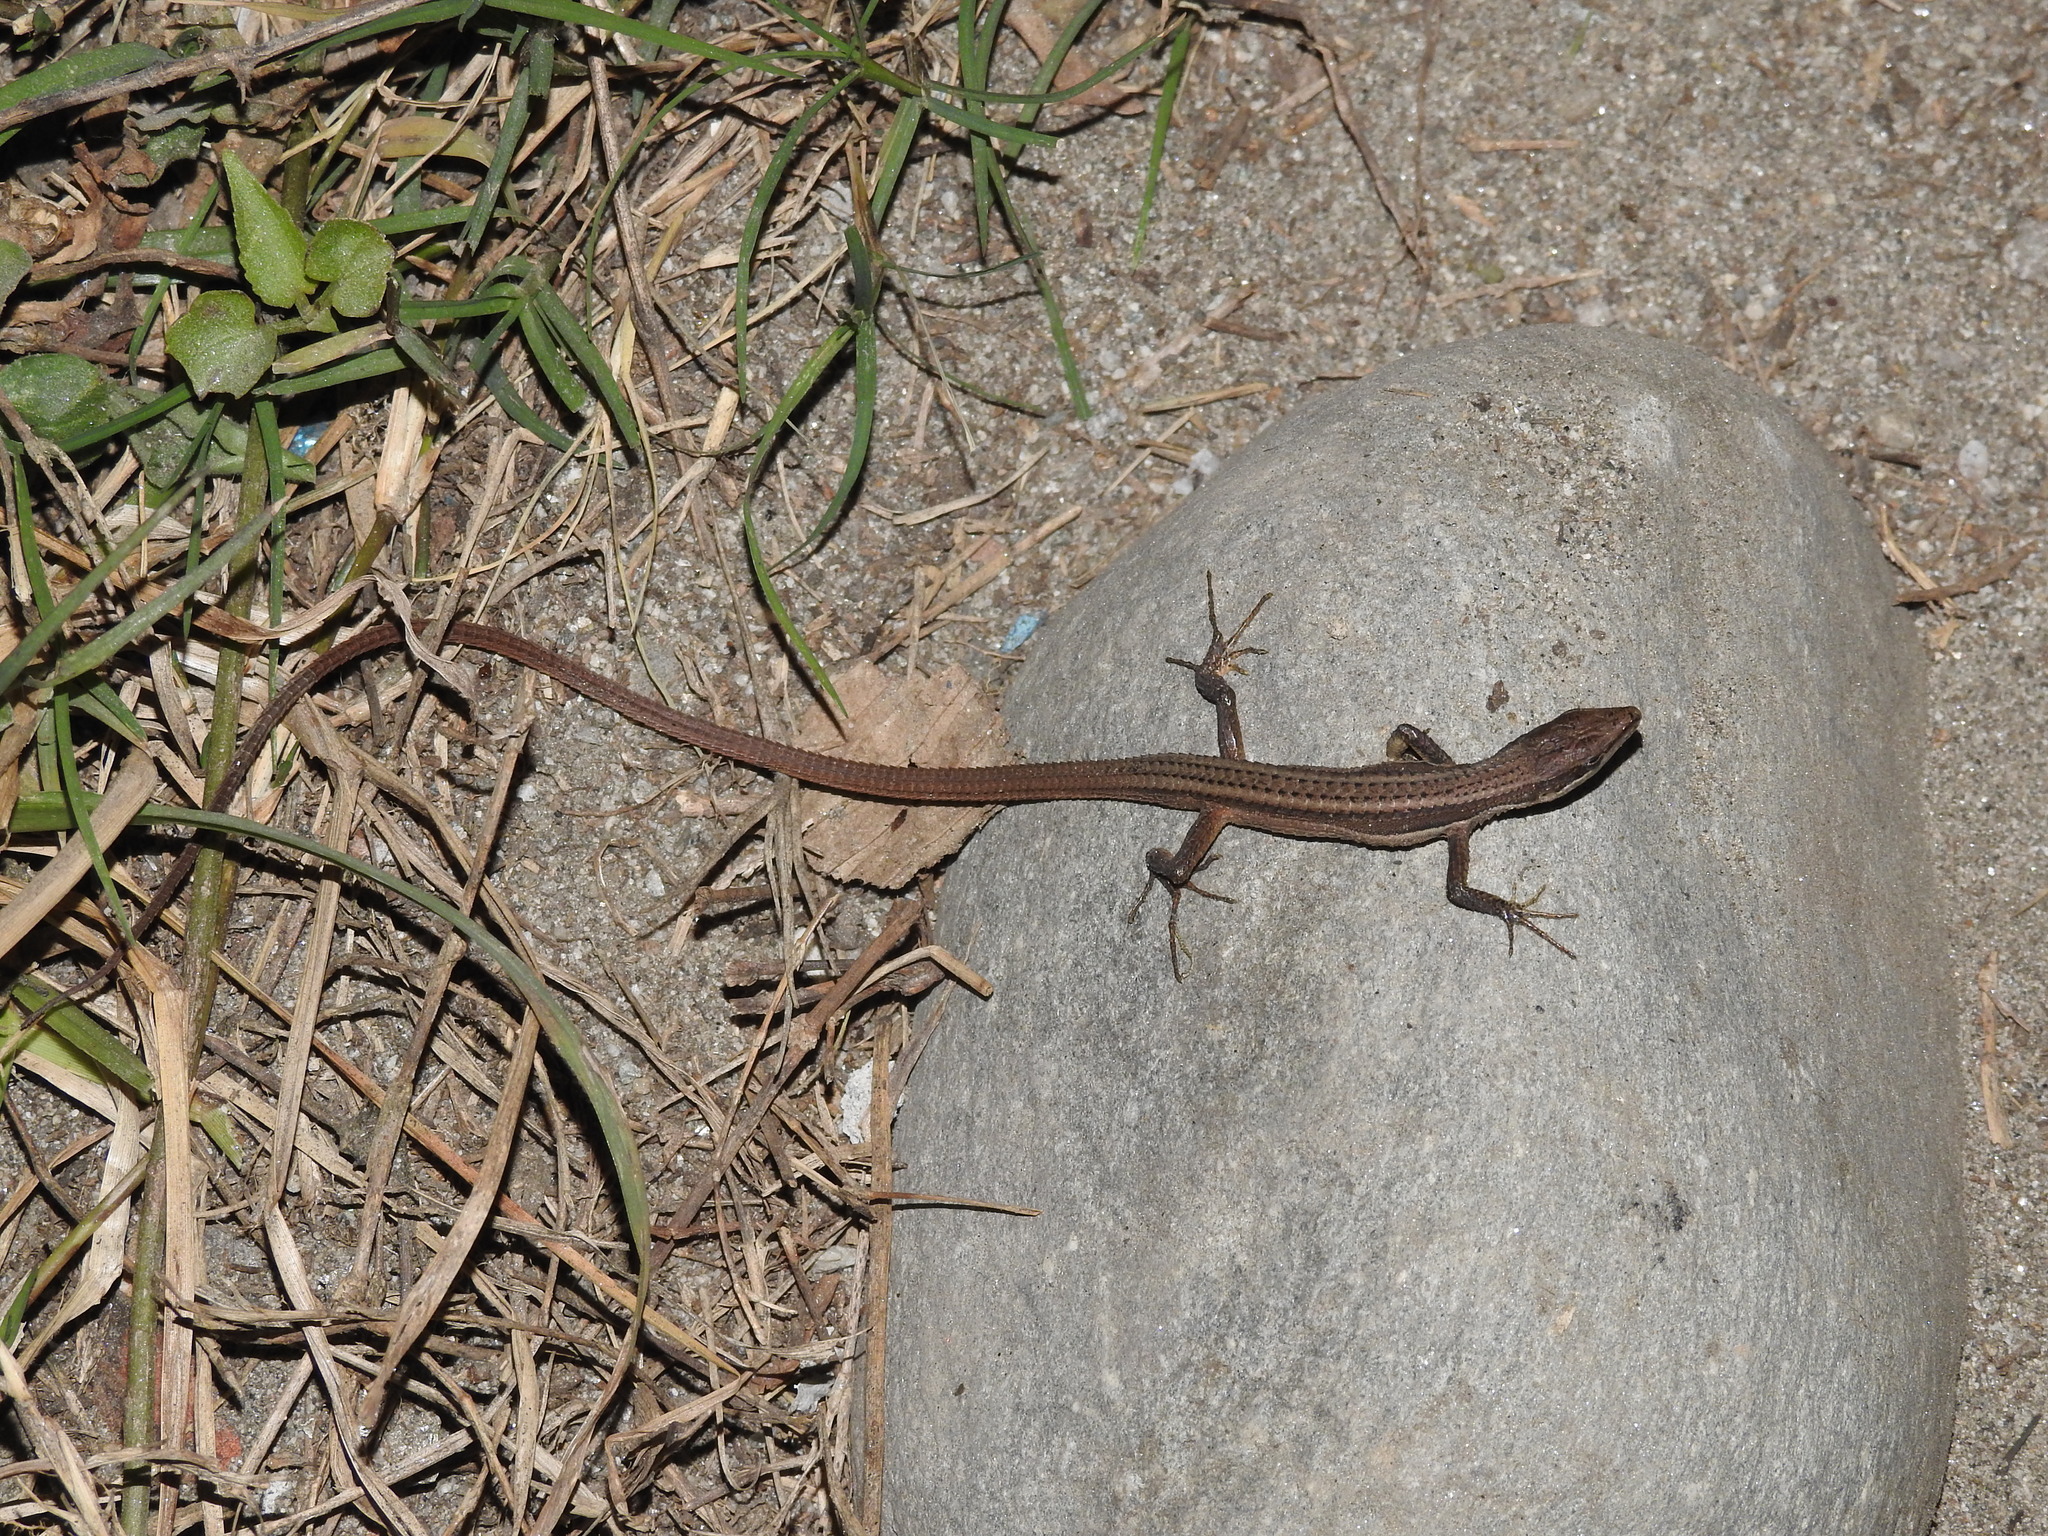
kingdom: Animalia
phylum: Chordata
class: Squamata
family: Lacertidae
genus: Takydromus
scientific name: Takydromus sexlineatus
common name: Asian grass lizard
